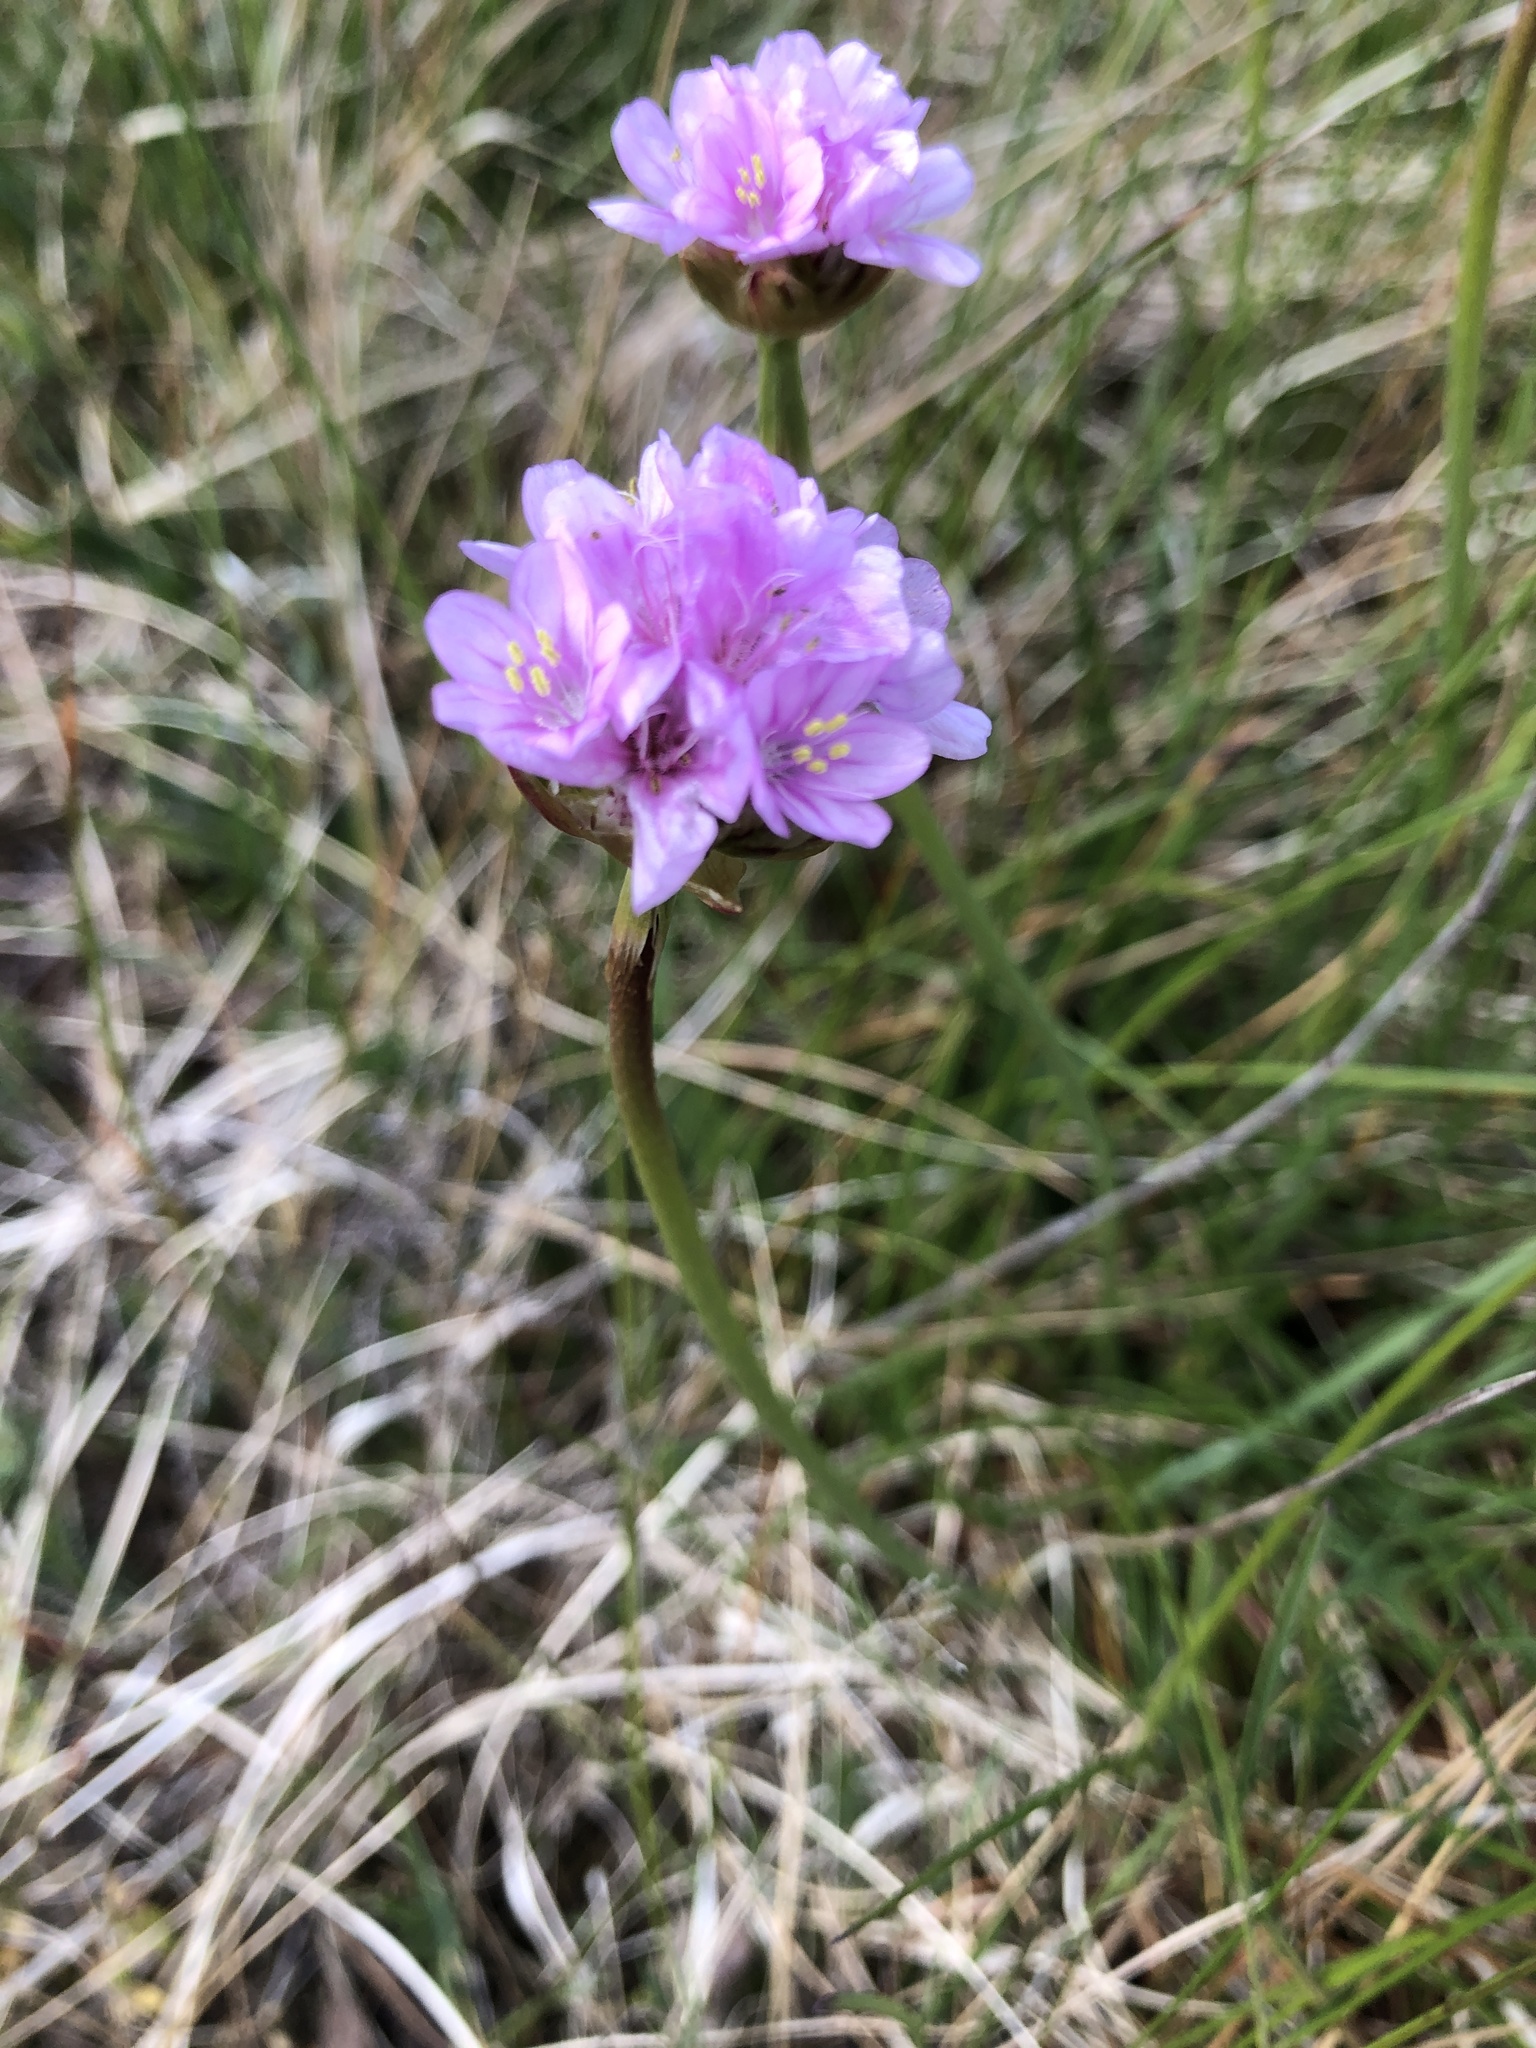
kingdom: Plantae
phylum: Tracheophyta
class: Magnoliopsida
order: Caryophyllales
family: Plumbaginaceae
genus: Armeria
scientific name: Armeria maritima
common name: Thrift
